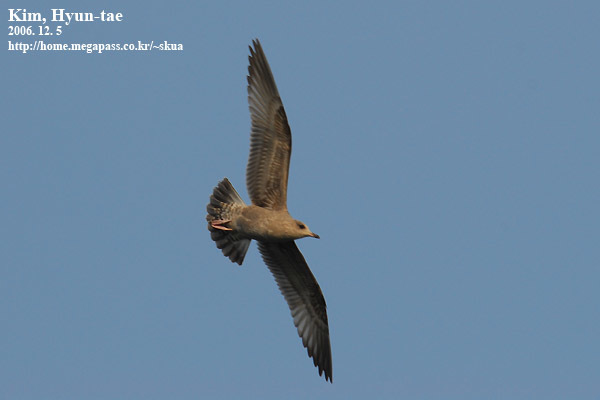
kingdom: Animalia
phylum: Chordata
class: Aves
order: Charadriiformes
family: Laridae
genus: Larus
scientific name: Larus canus
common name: Mew gull
